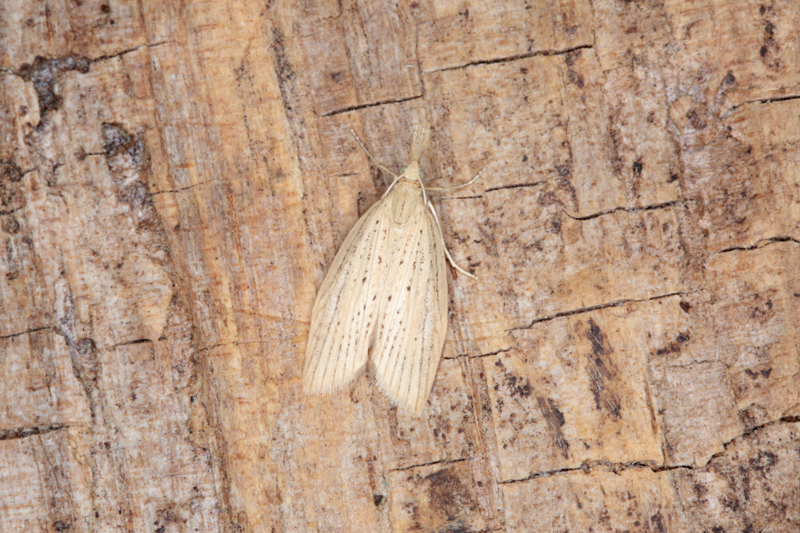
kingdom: Animalia
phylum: Arthropoda
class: Insecta
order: Lepidoptera
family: Geometridae
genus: Microdes
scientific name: Microdes epicryptis
